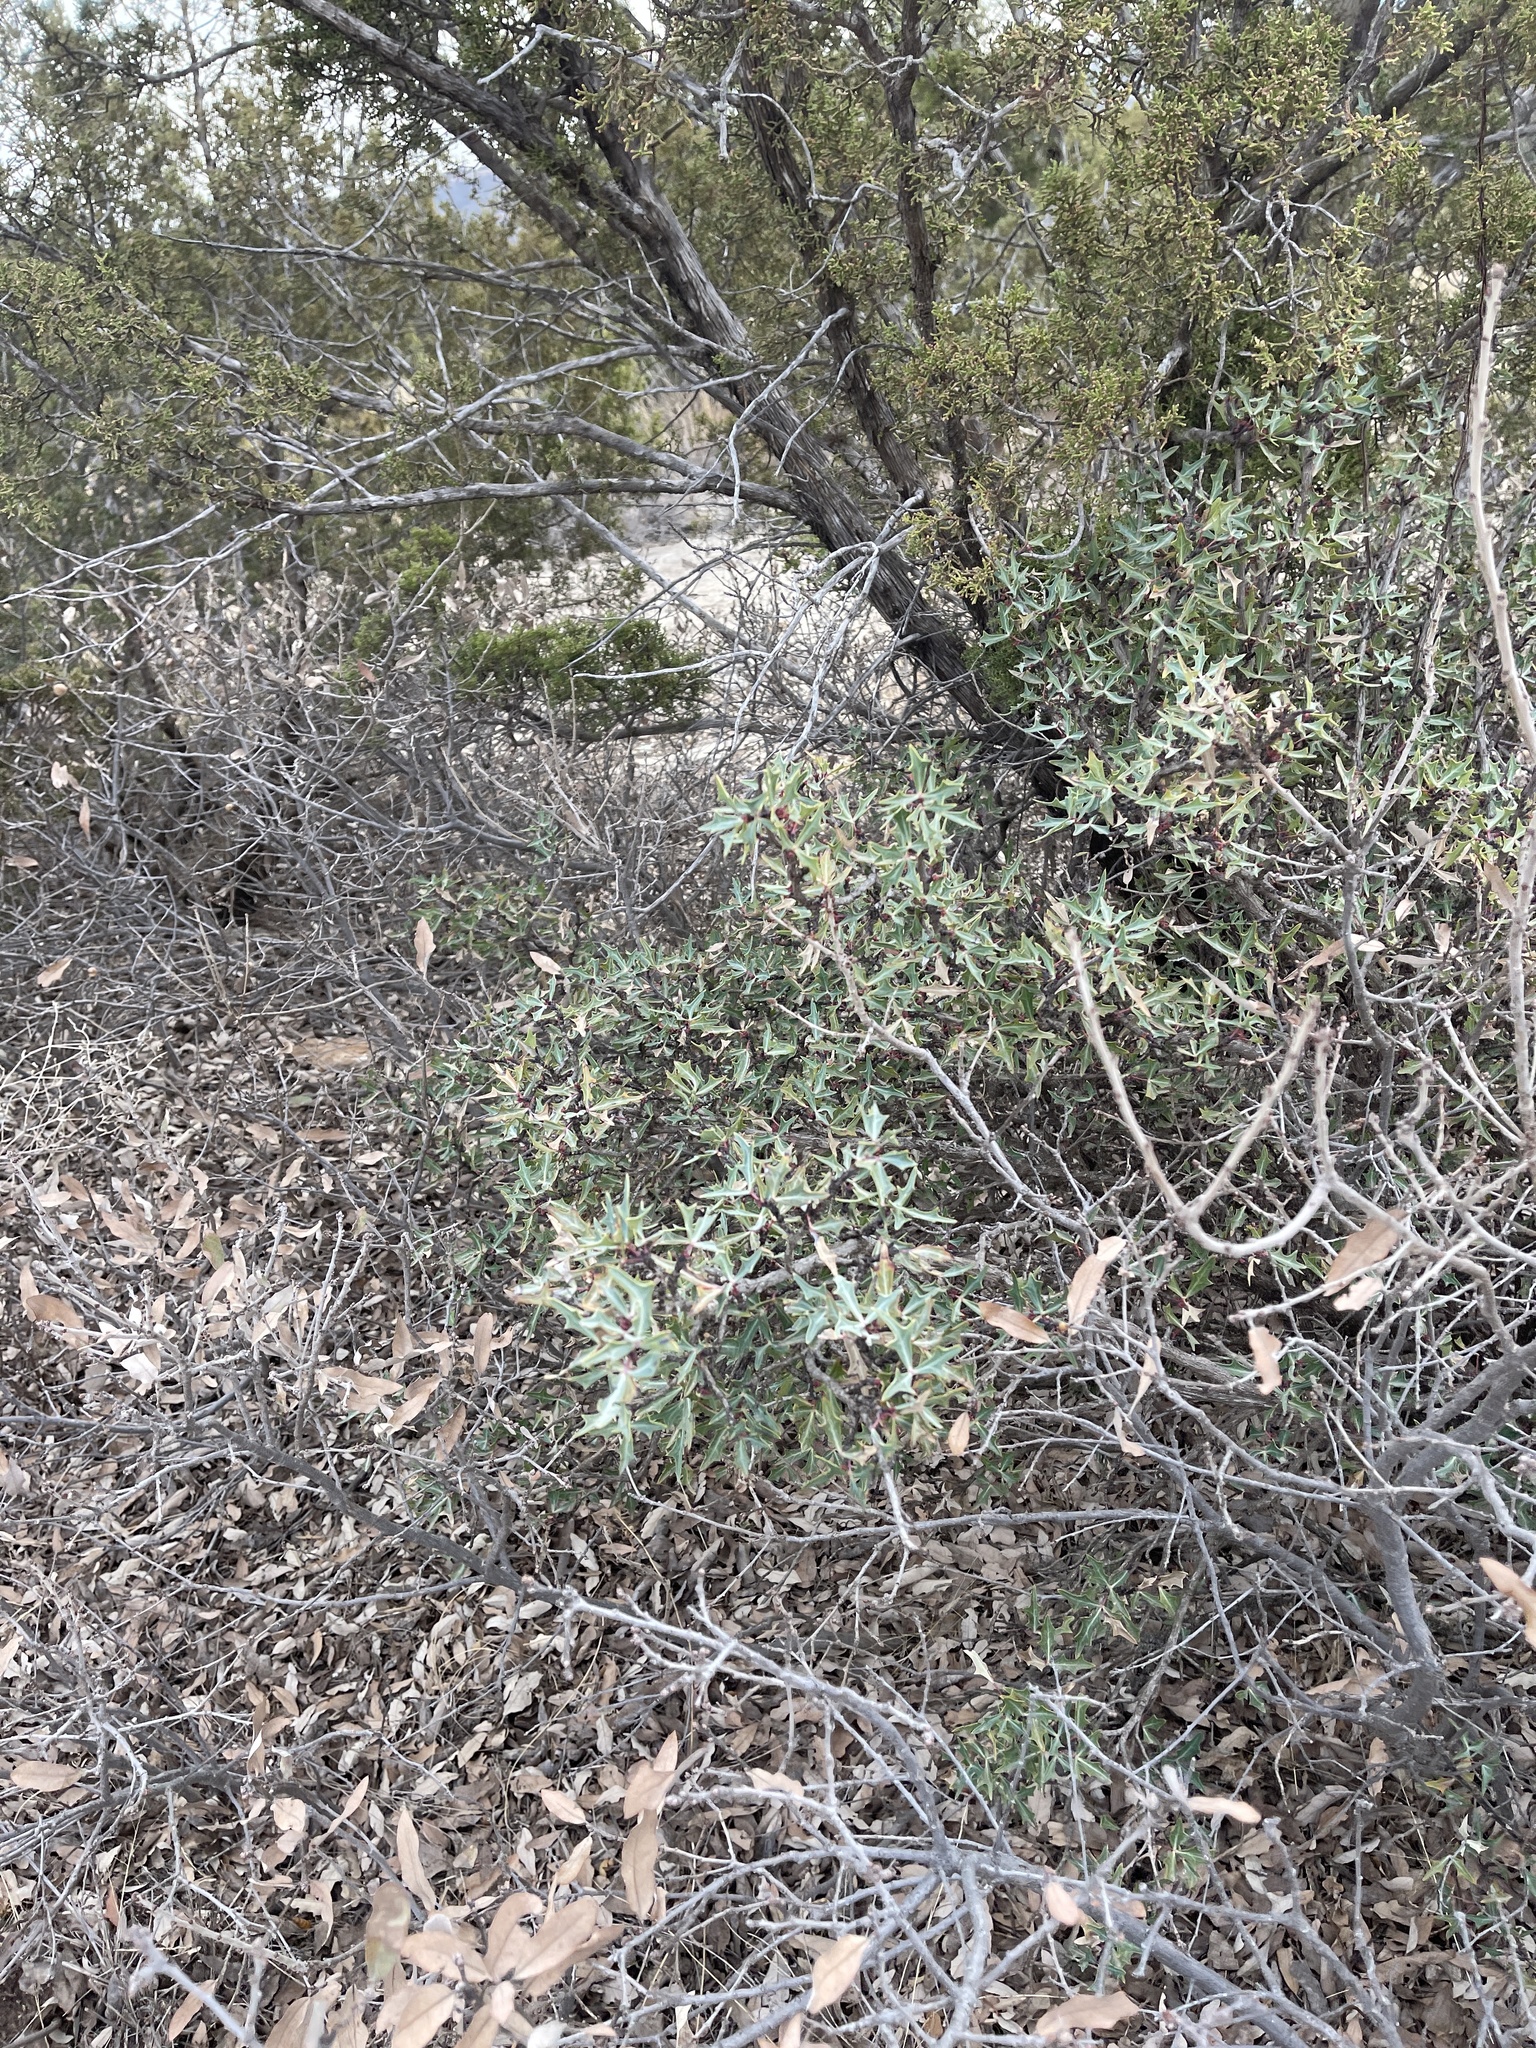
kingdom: Plantae
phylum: Tracheophyta
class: Magnoliopsida
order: Ranunculales
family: Berberidaceae
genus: Alloberberis
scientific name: Alloberberis trifoliolata
